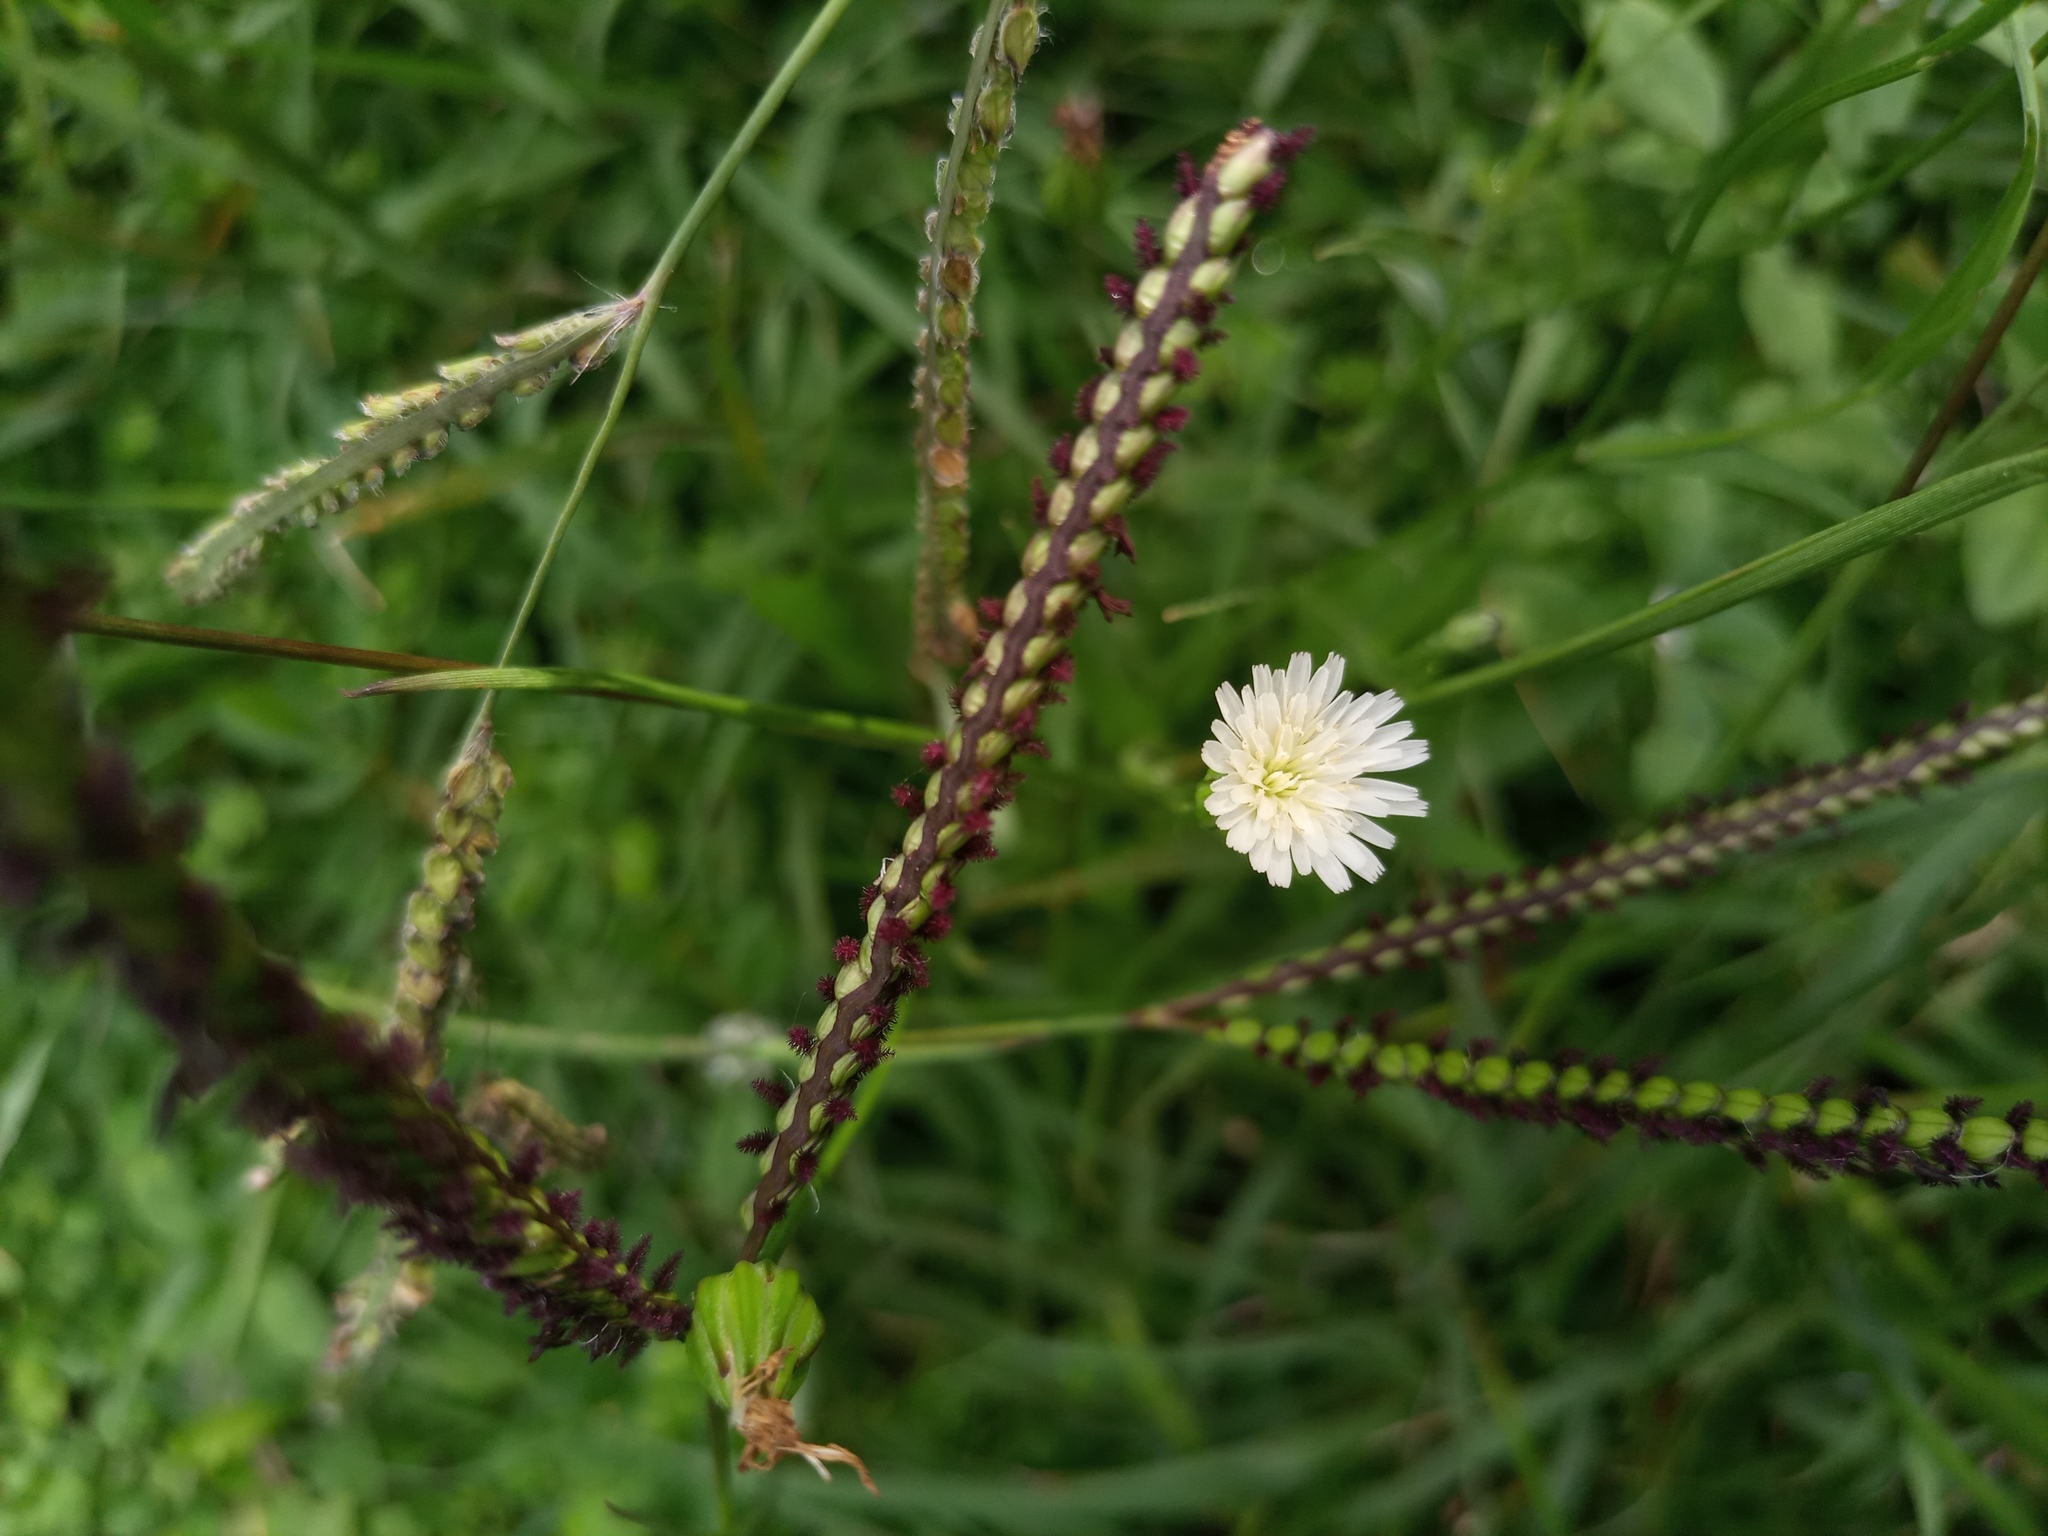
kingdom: Plantae
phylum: Tracheophyta
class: Magnoliopsida
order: Asterales
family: Asteraceae
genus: Hypochaeris
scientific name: Hypochaeris albiflora
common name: White flatweed
